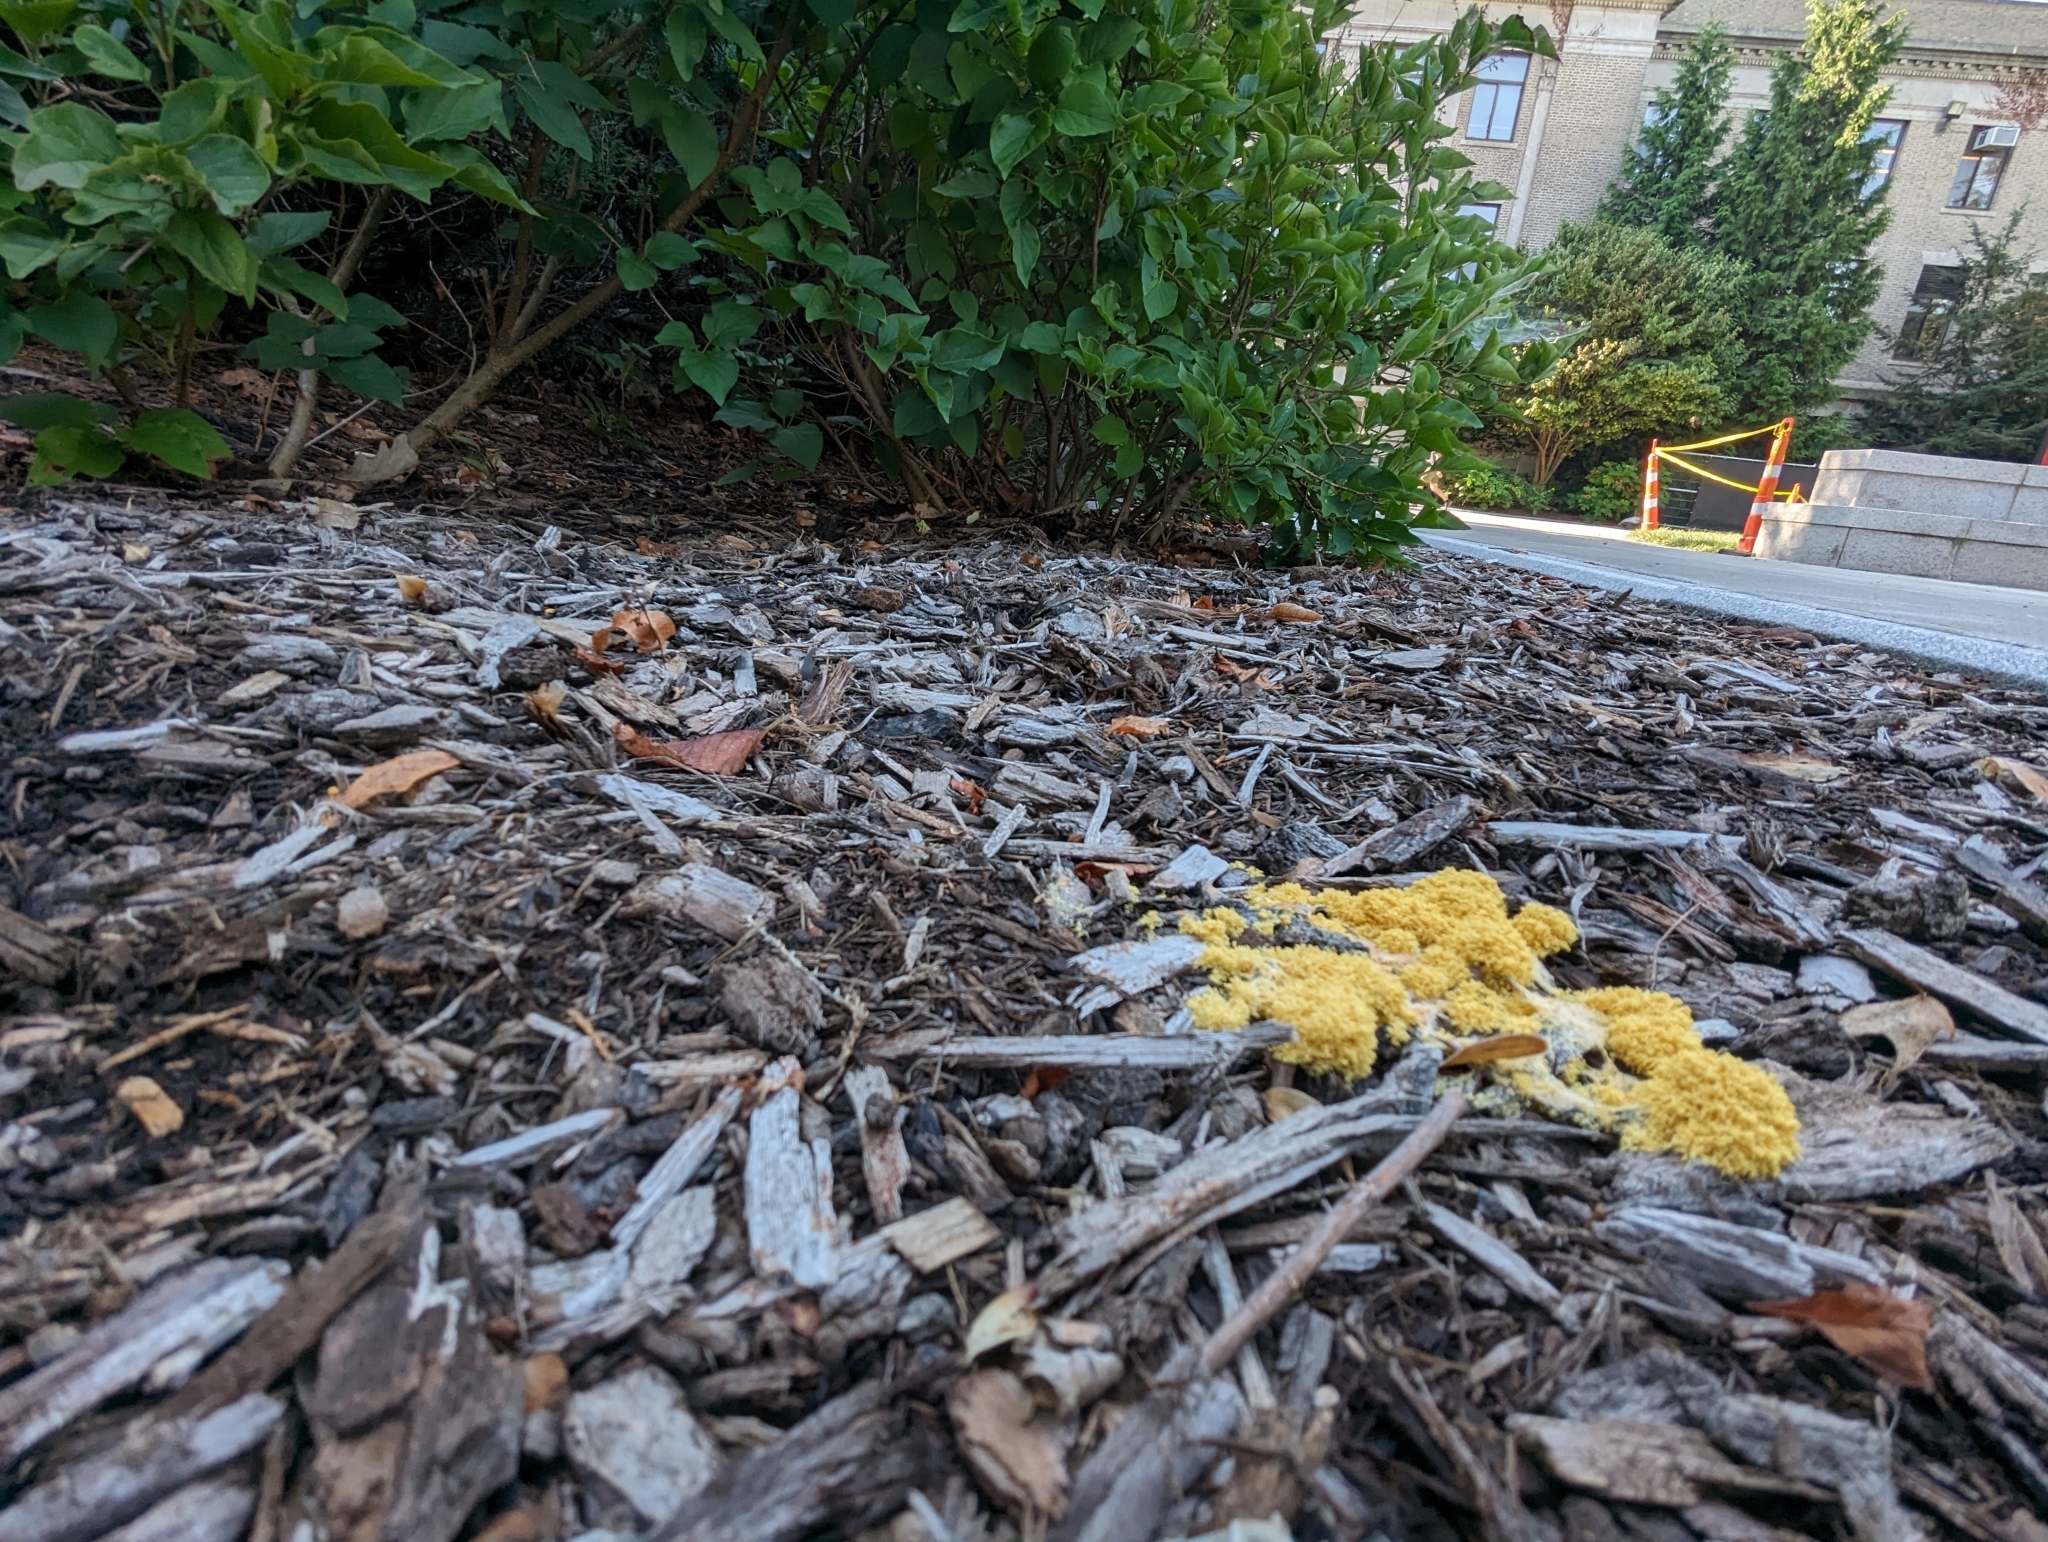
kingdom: Protozoa
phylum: Mycetozoa
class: Myxomycetes
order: Physarales
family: Physaraceae
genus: Fuligo
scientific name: Fuligo septica
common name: Dog vomit slime mold
